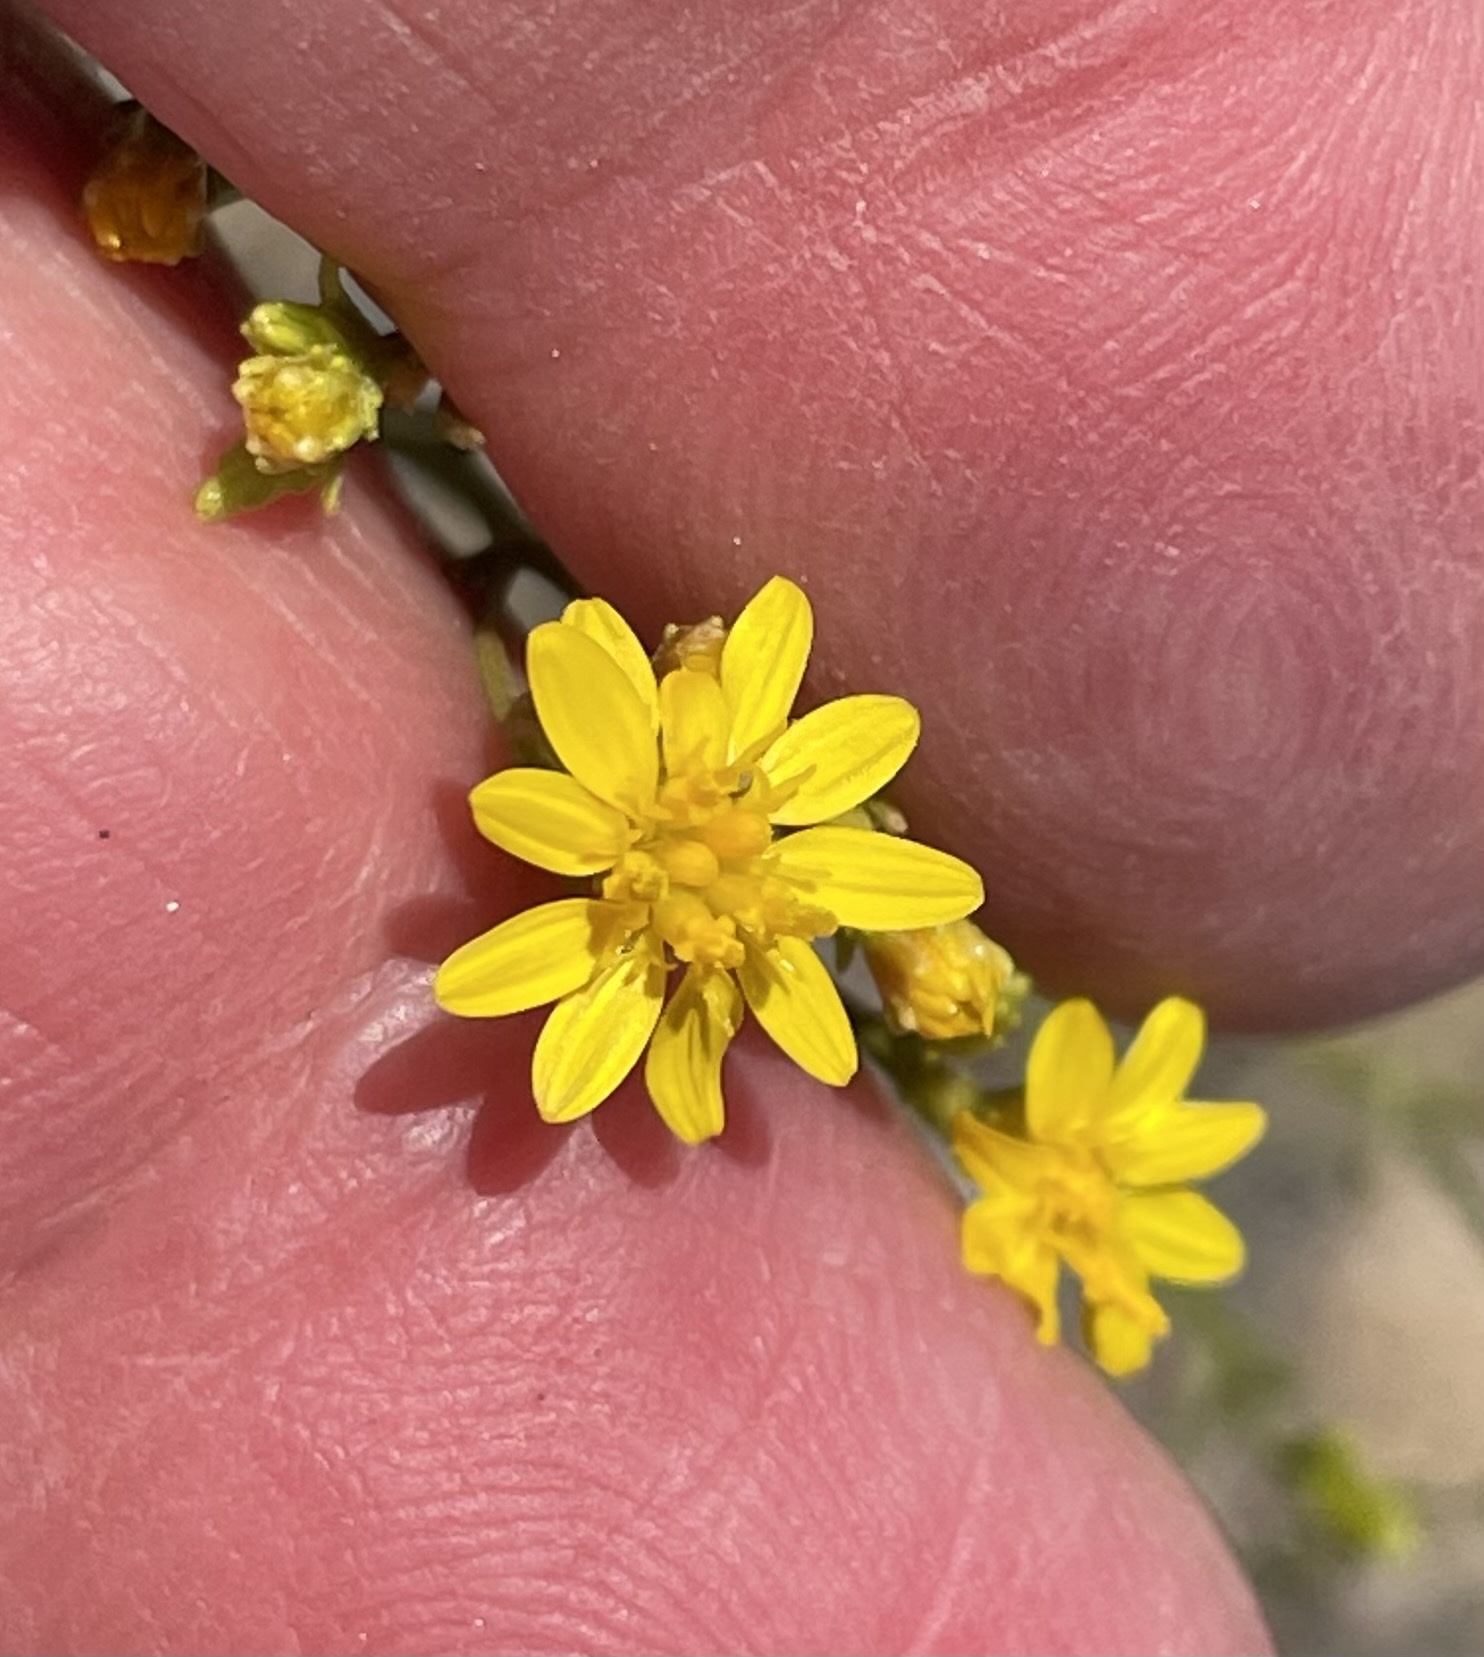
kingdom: Plantae
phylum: Tracheophyta
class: Magnoliopsida
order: Asterales
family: Asteraceae
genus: Gutierrezia
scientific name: Gutierrezia sarothrae
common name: Broom snakeweed
